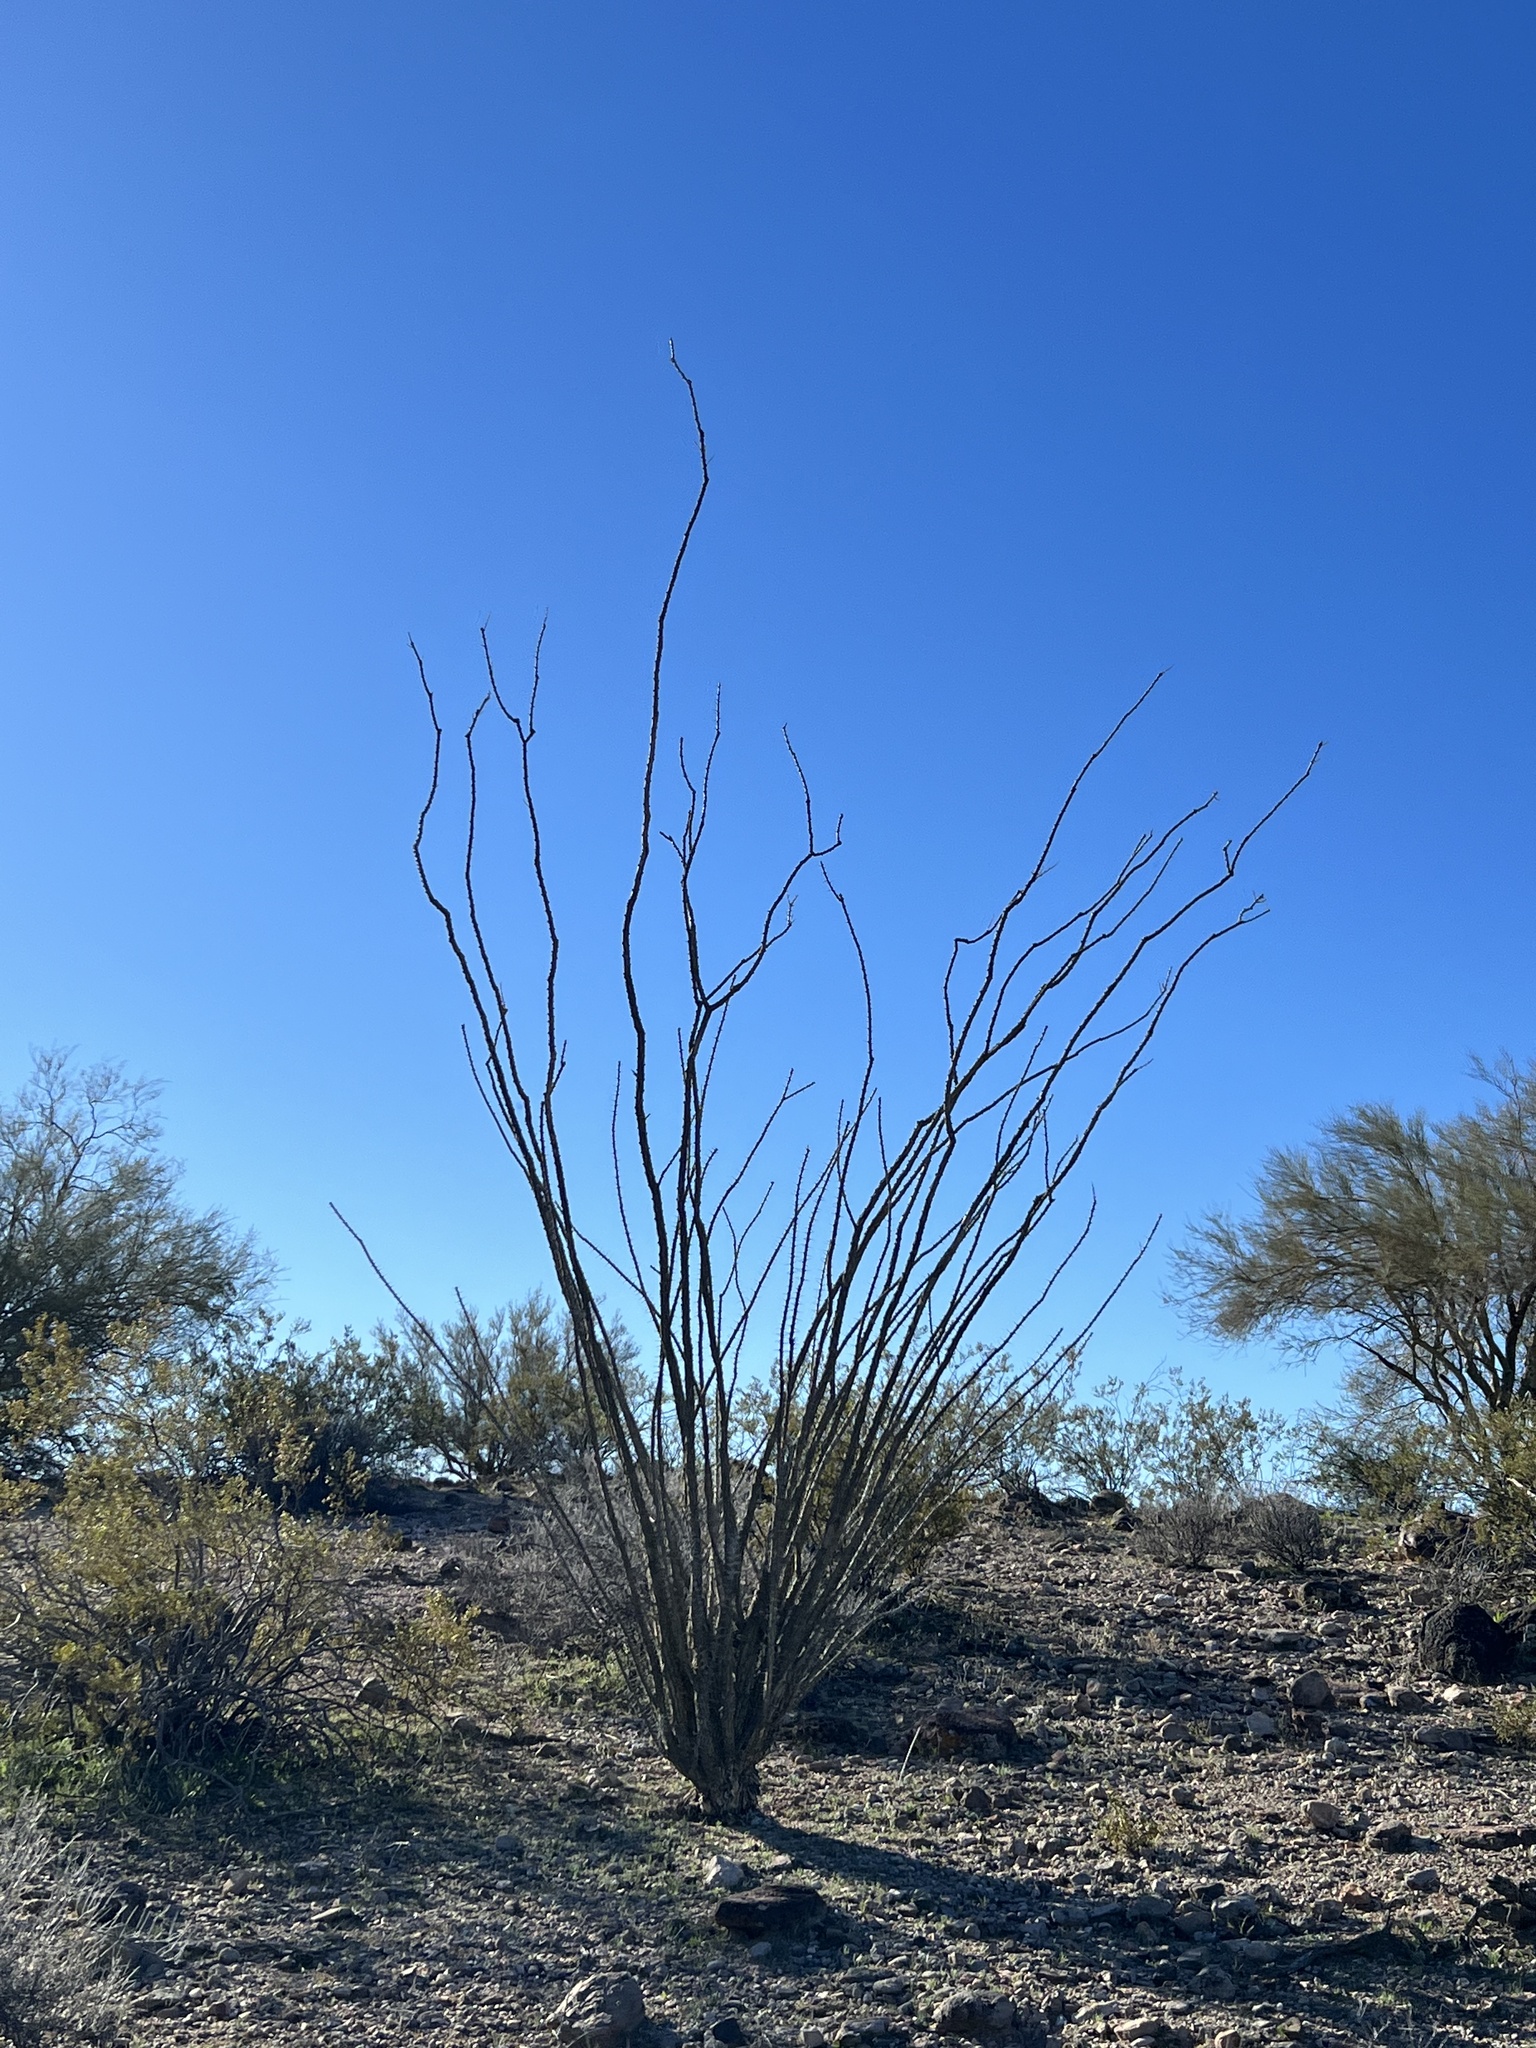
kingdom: Plantae
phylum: Tracheophyta
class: Magnoliopsida
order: Ericales
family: Fouquieriaceae
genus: Fouquieria
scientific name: Fouquieria splendens
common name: Vine-cactus
